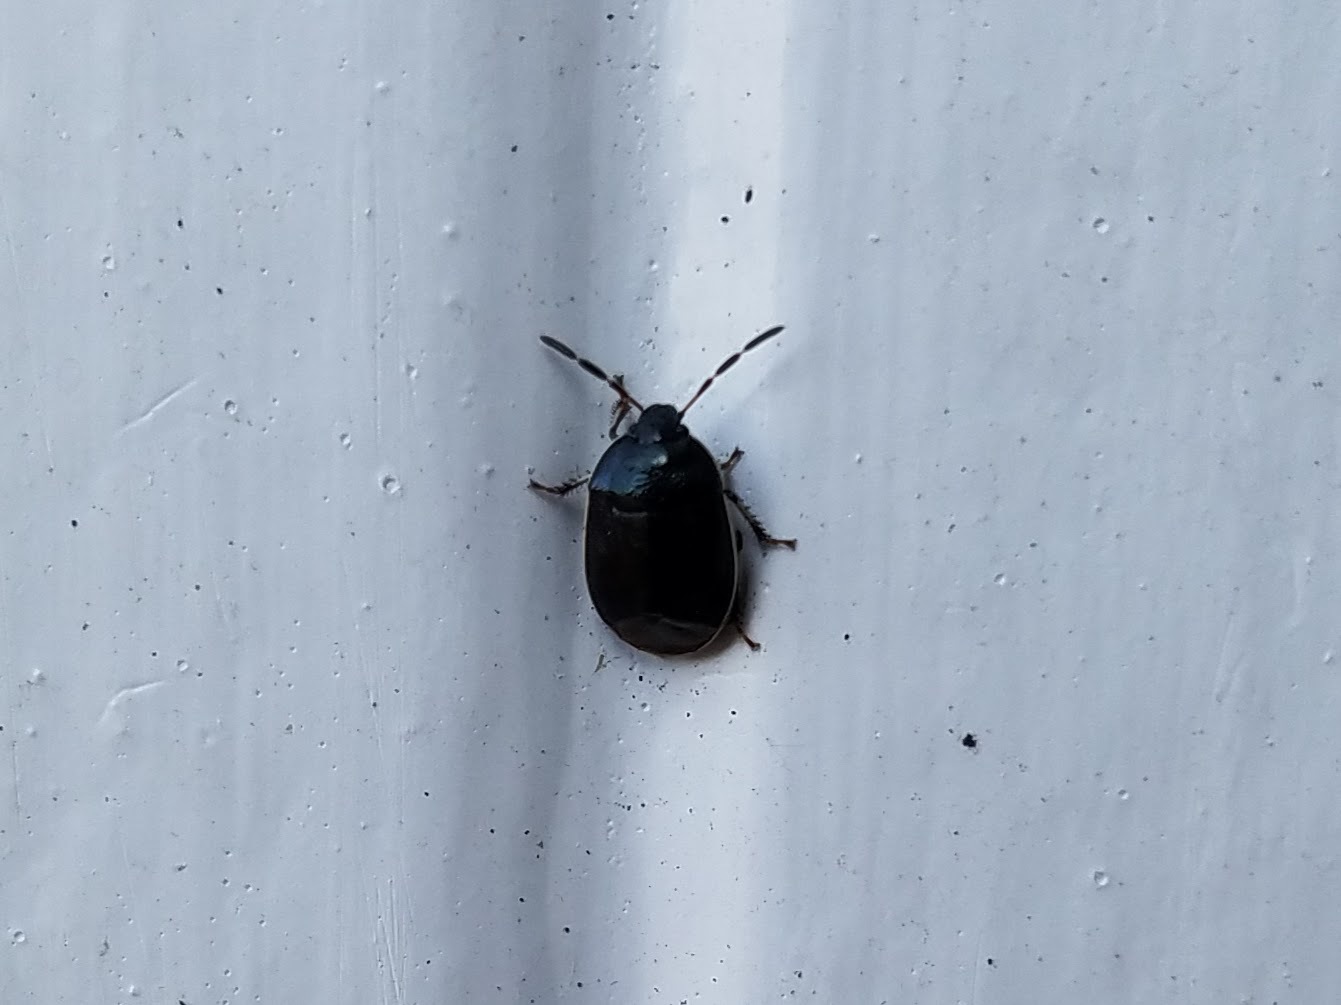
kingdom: Animalia
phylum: Arthropoda
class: Insecta
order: Hemiptera
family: Cydnidae
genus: Sehirus
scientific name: Sehirus cinctus
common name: White-margined burrower bug
